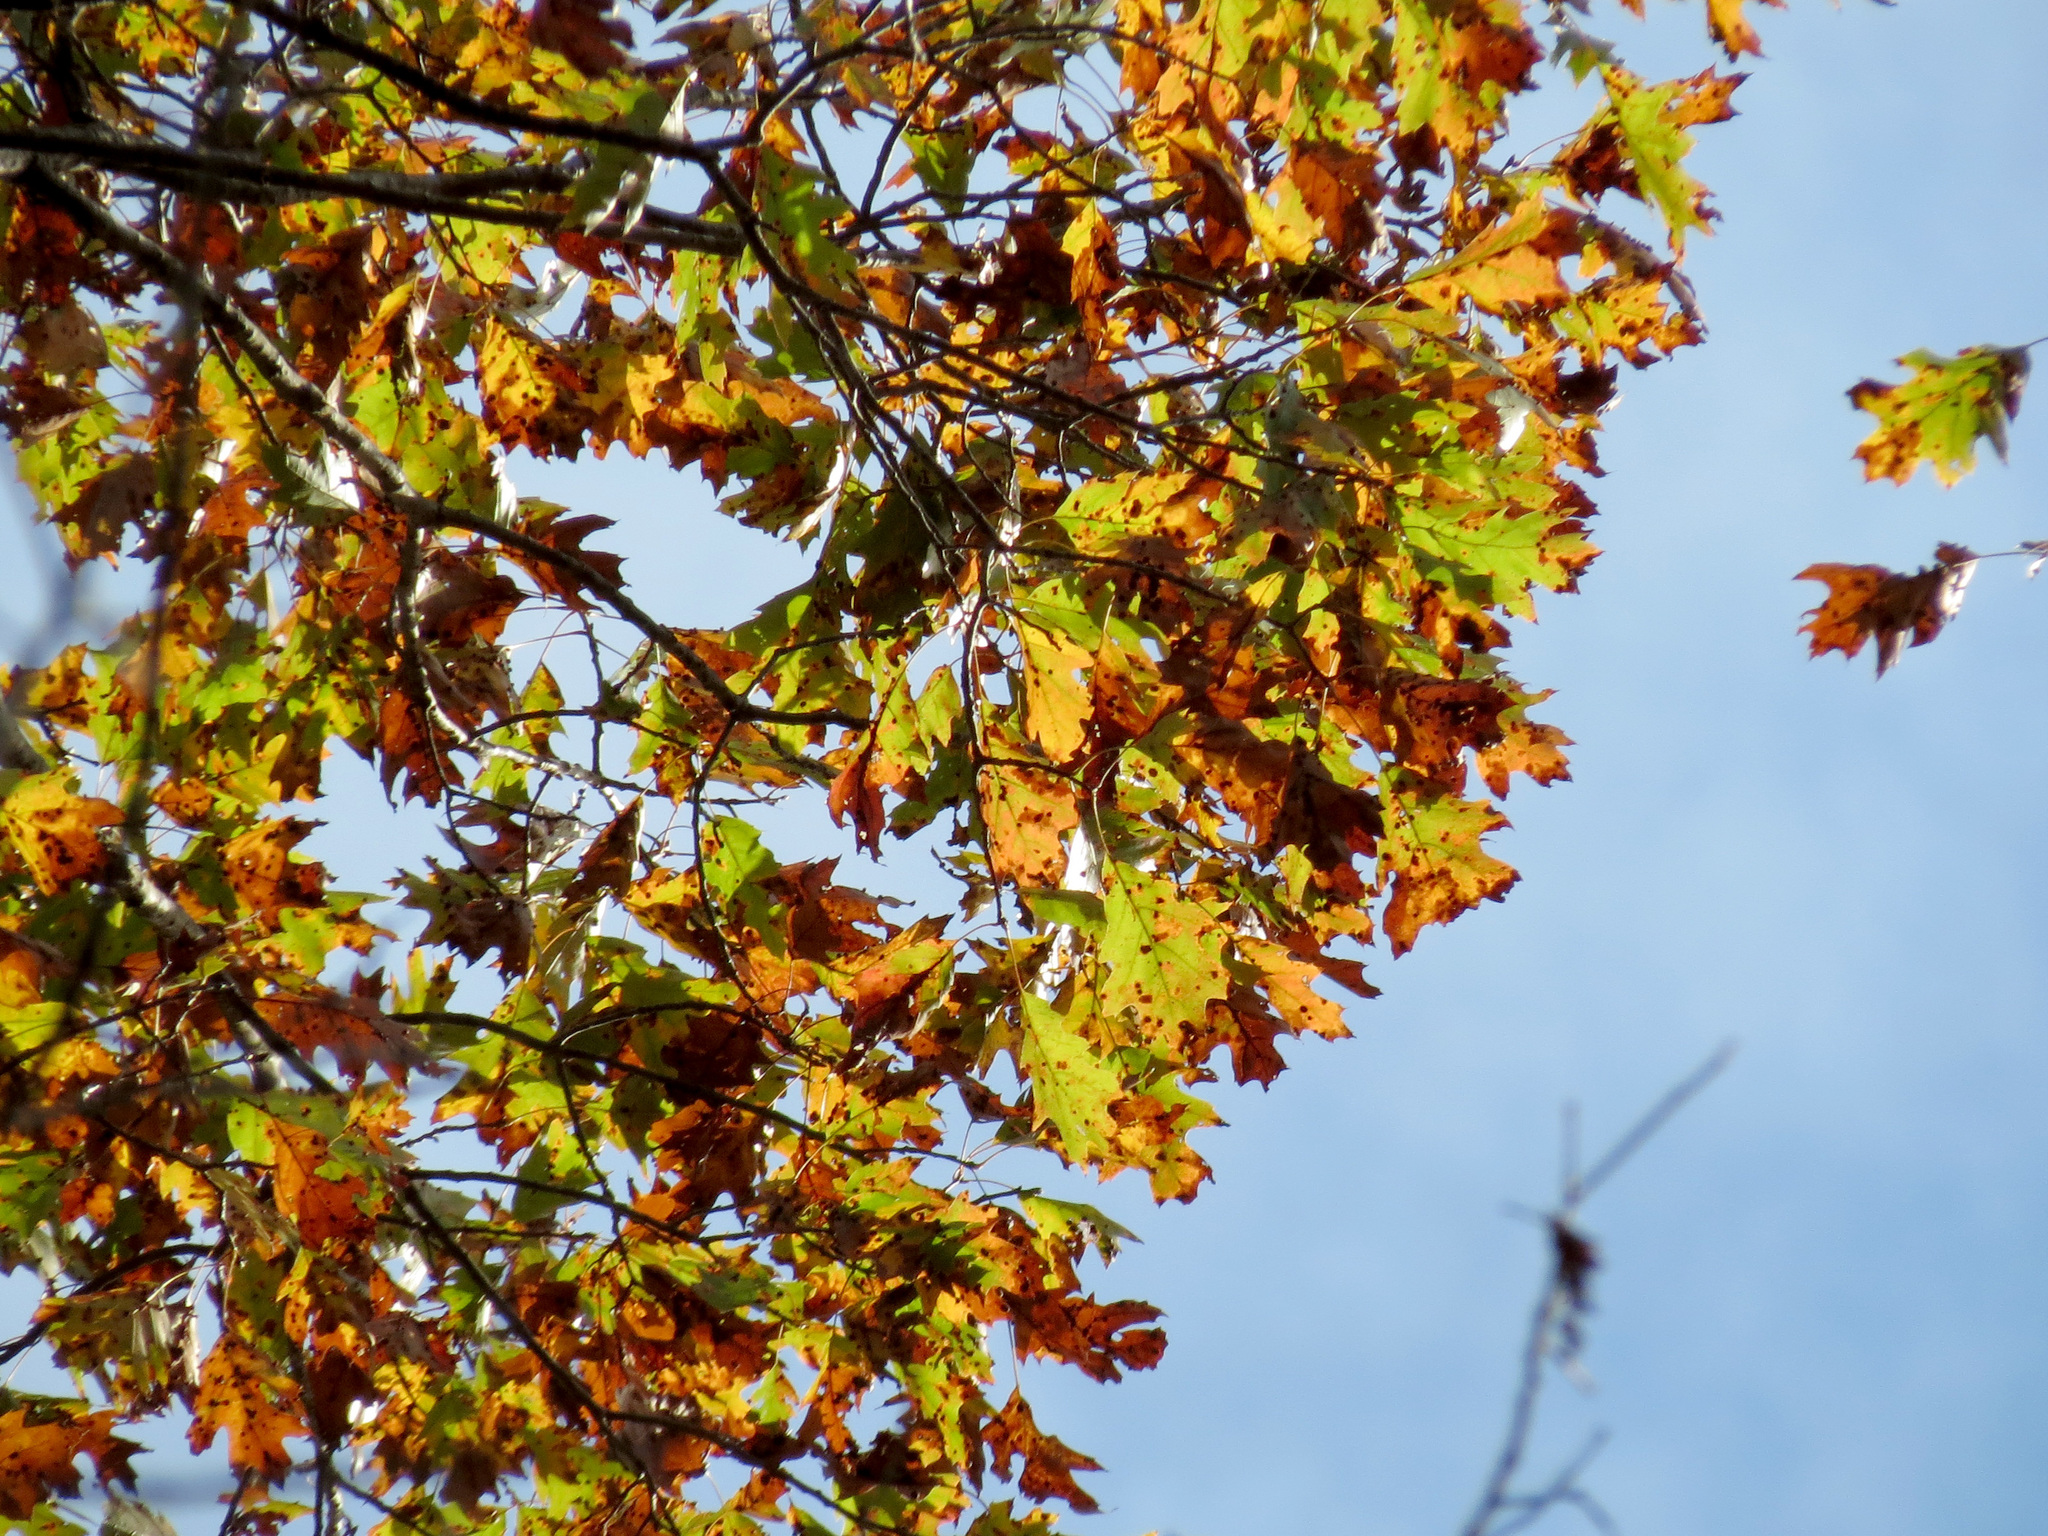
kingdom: Plantae
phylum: Tracheophyta
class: Magnoliopsida
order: Fagales
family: Fagaceae
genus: Quercus
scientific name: Quercus rubra
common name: Red oak
